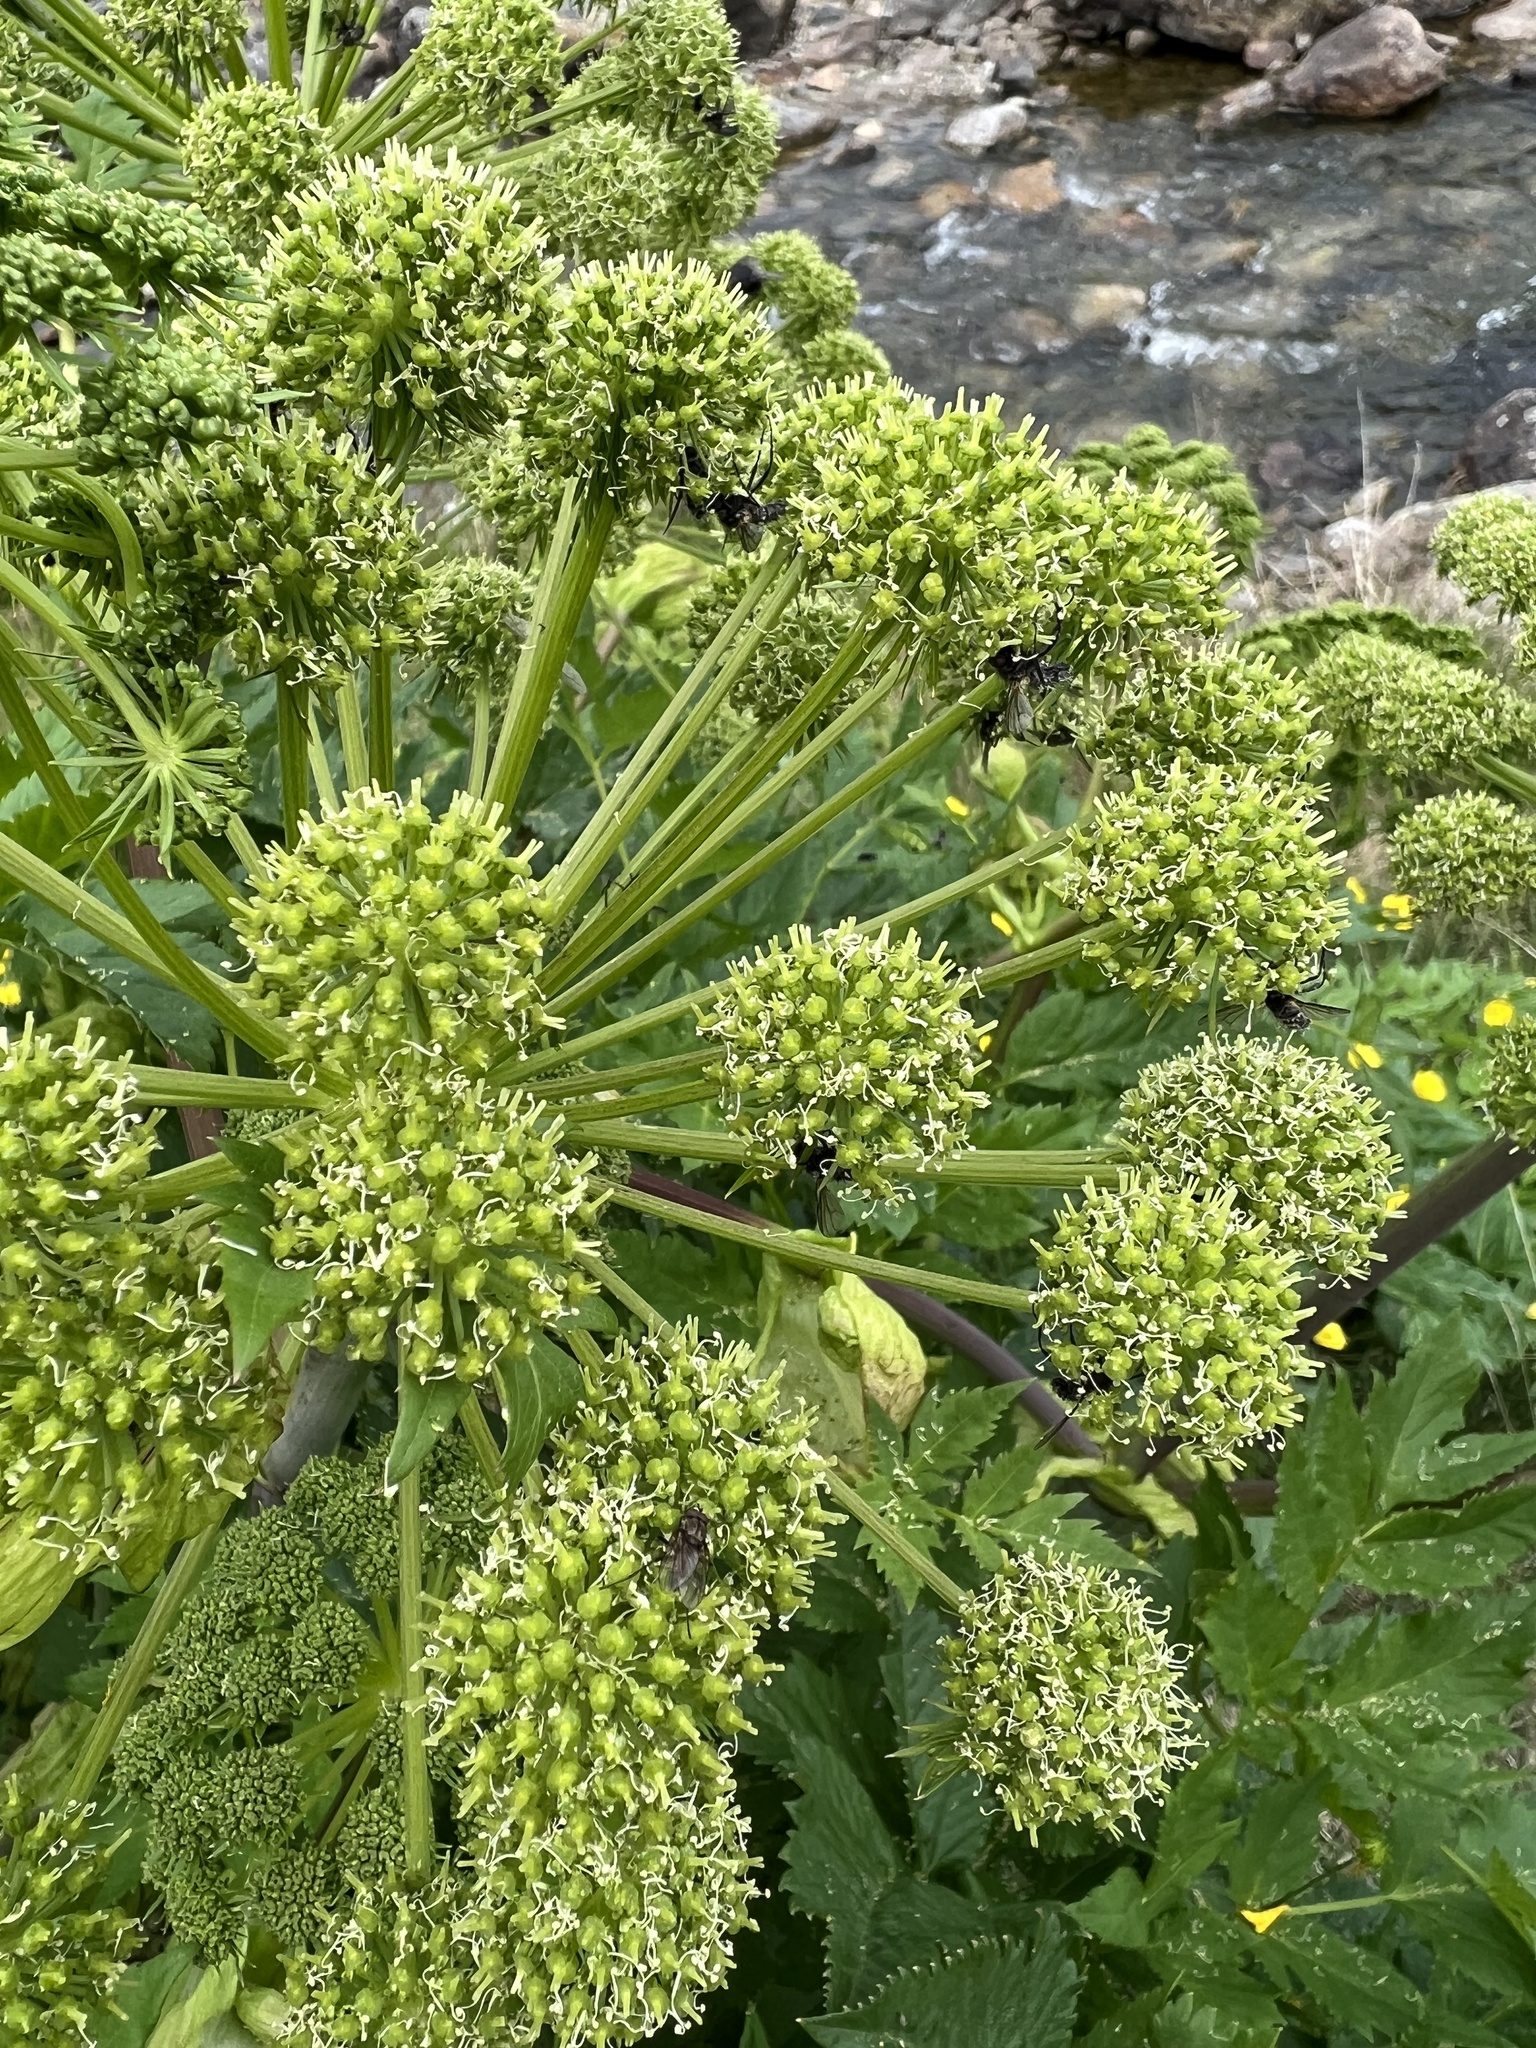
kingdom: Plantae
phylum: Tracheophyta
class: Magnoliopsida
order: Apiales
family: Apiaceae
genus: Angelica
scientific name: Angelica archangelica
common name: Garden angelica
